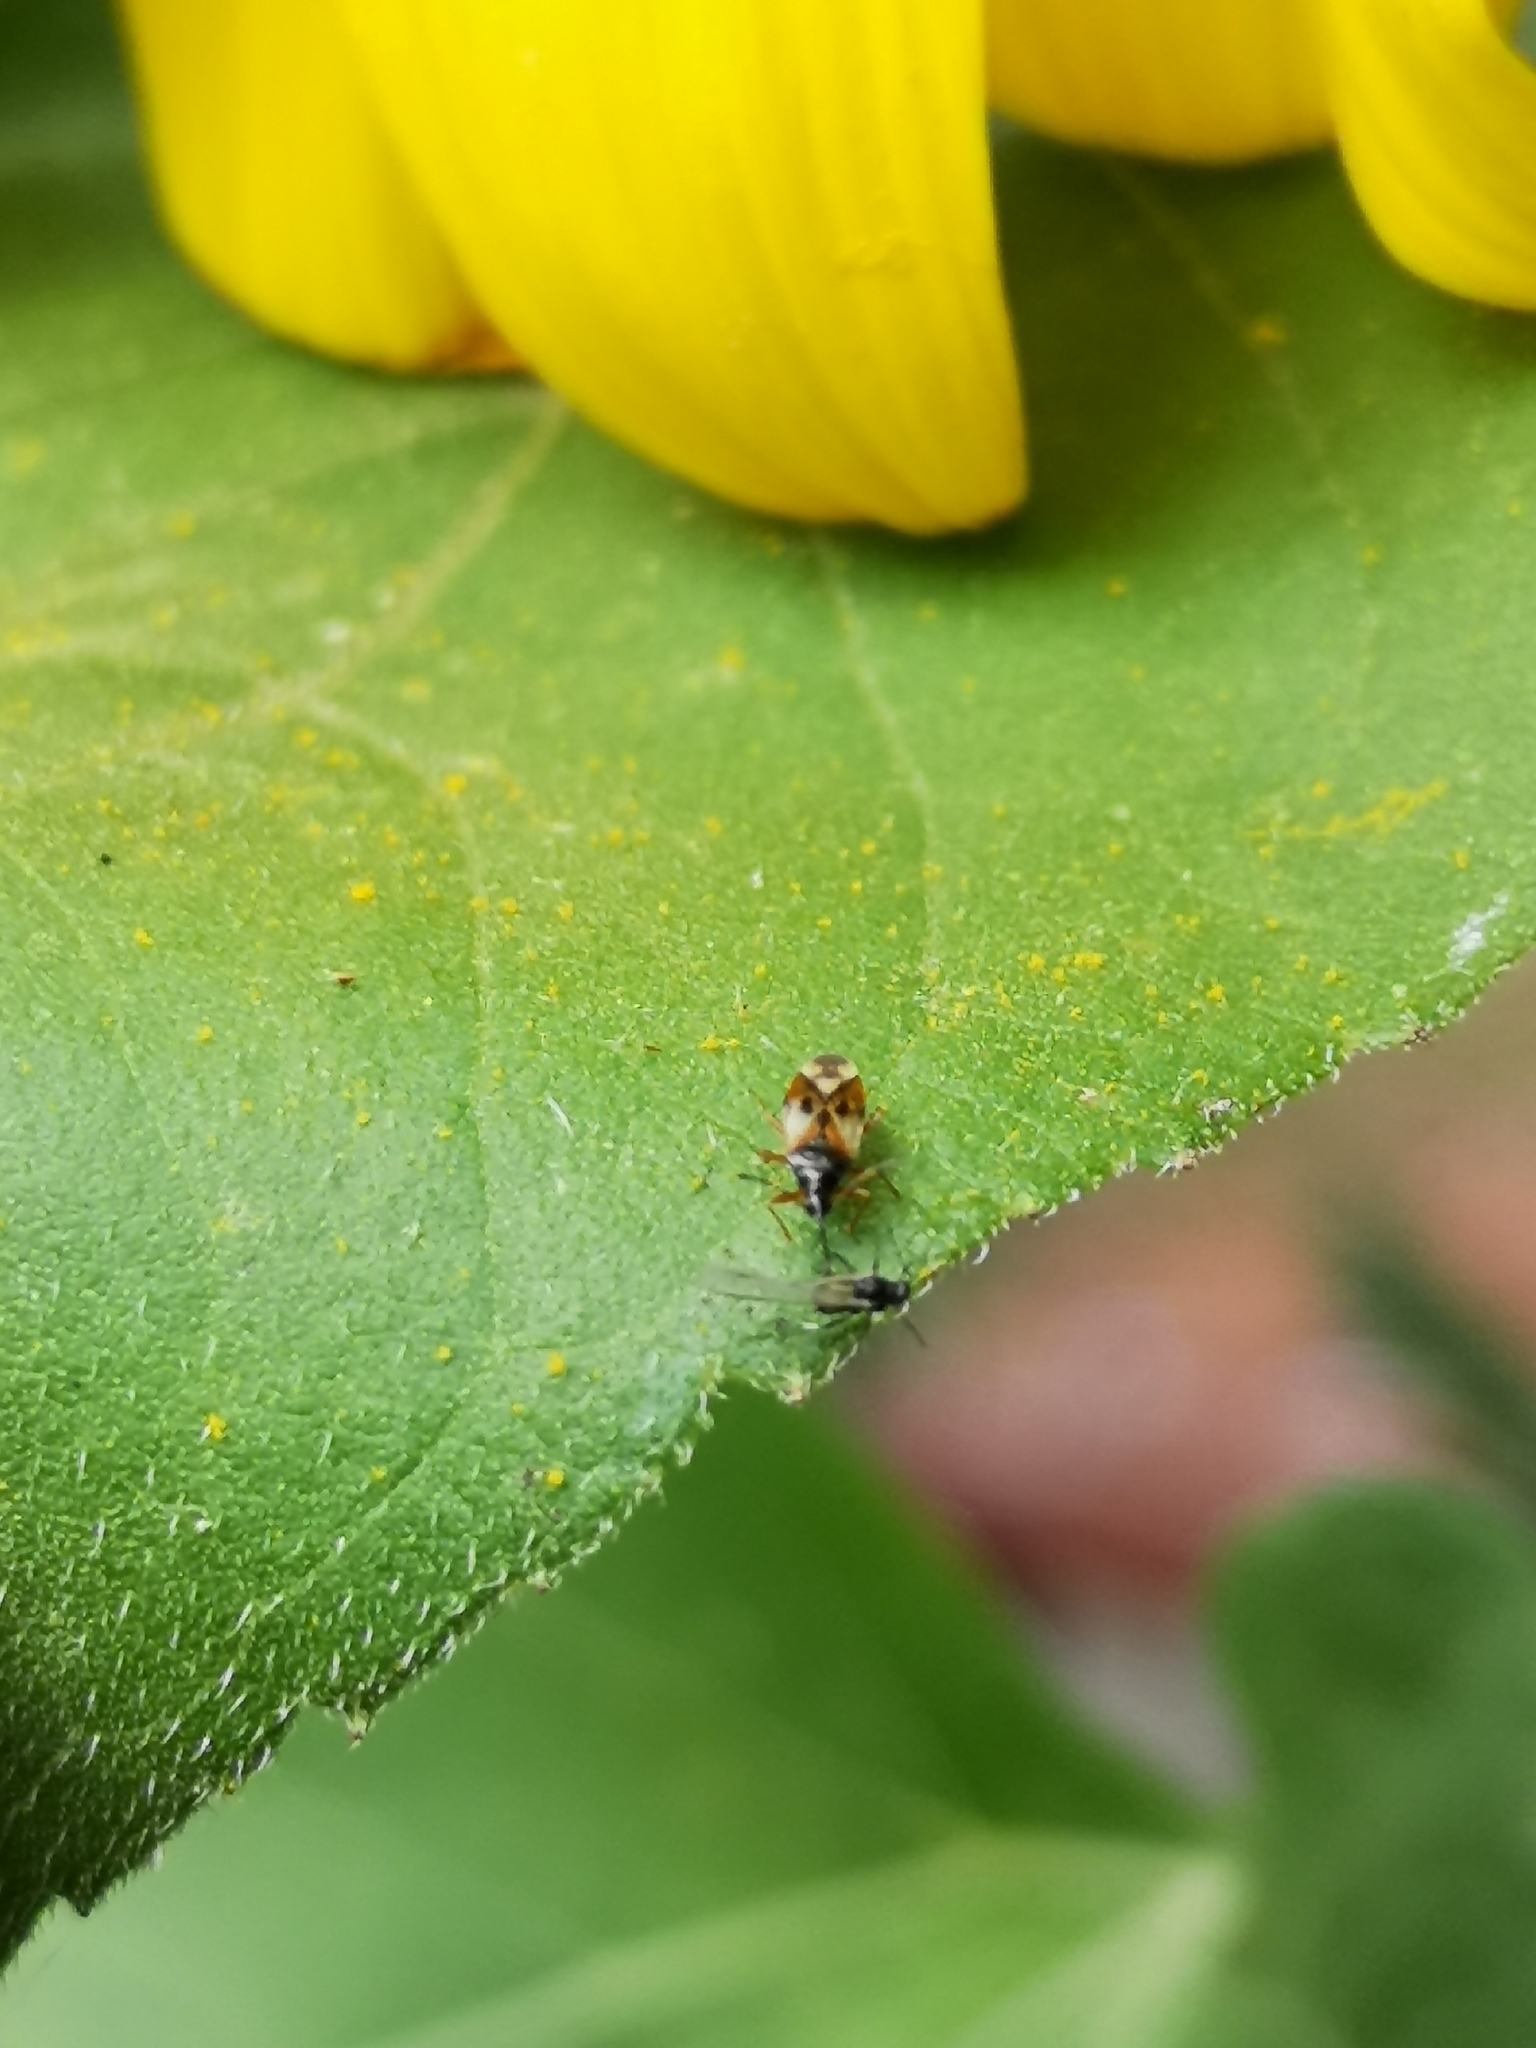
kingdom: Animalia
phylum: Arthropoda
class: Insecta
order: Hemiptera
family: Anthocoridae
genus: Anthocoris
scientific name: Anthocoris nemorum
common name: Minute pirate bug
